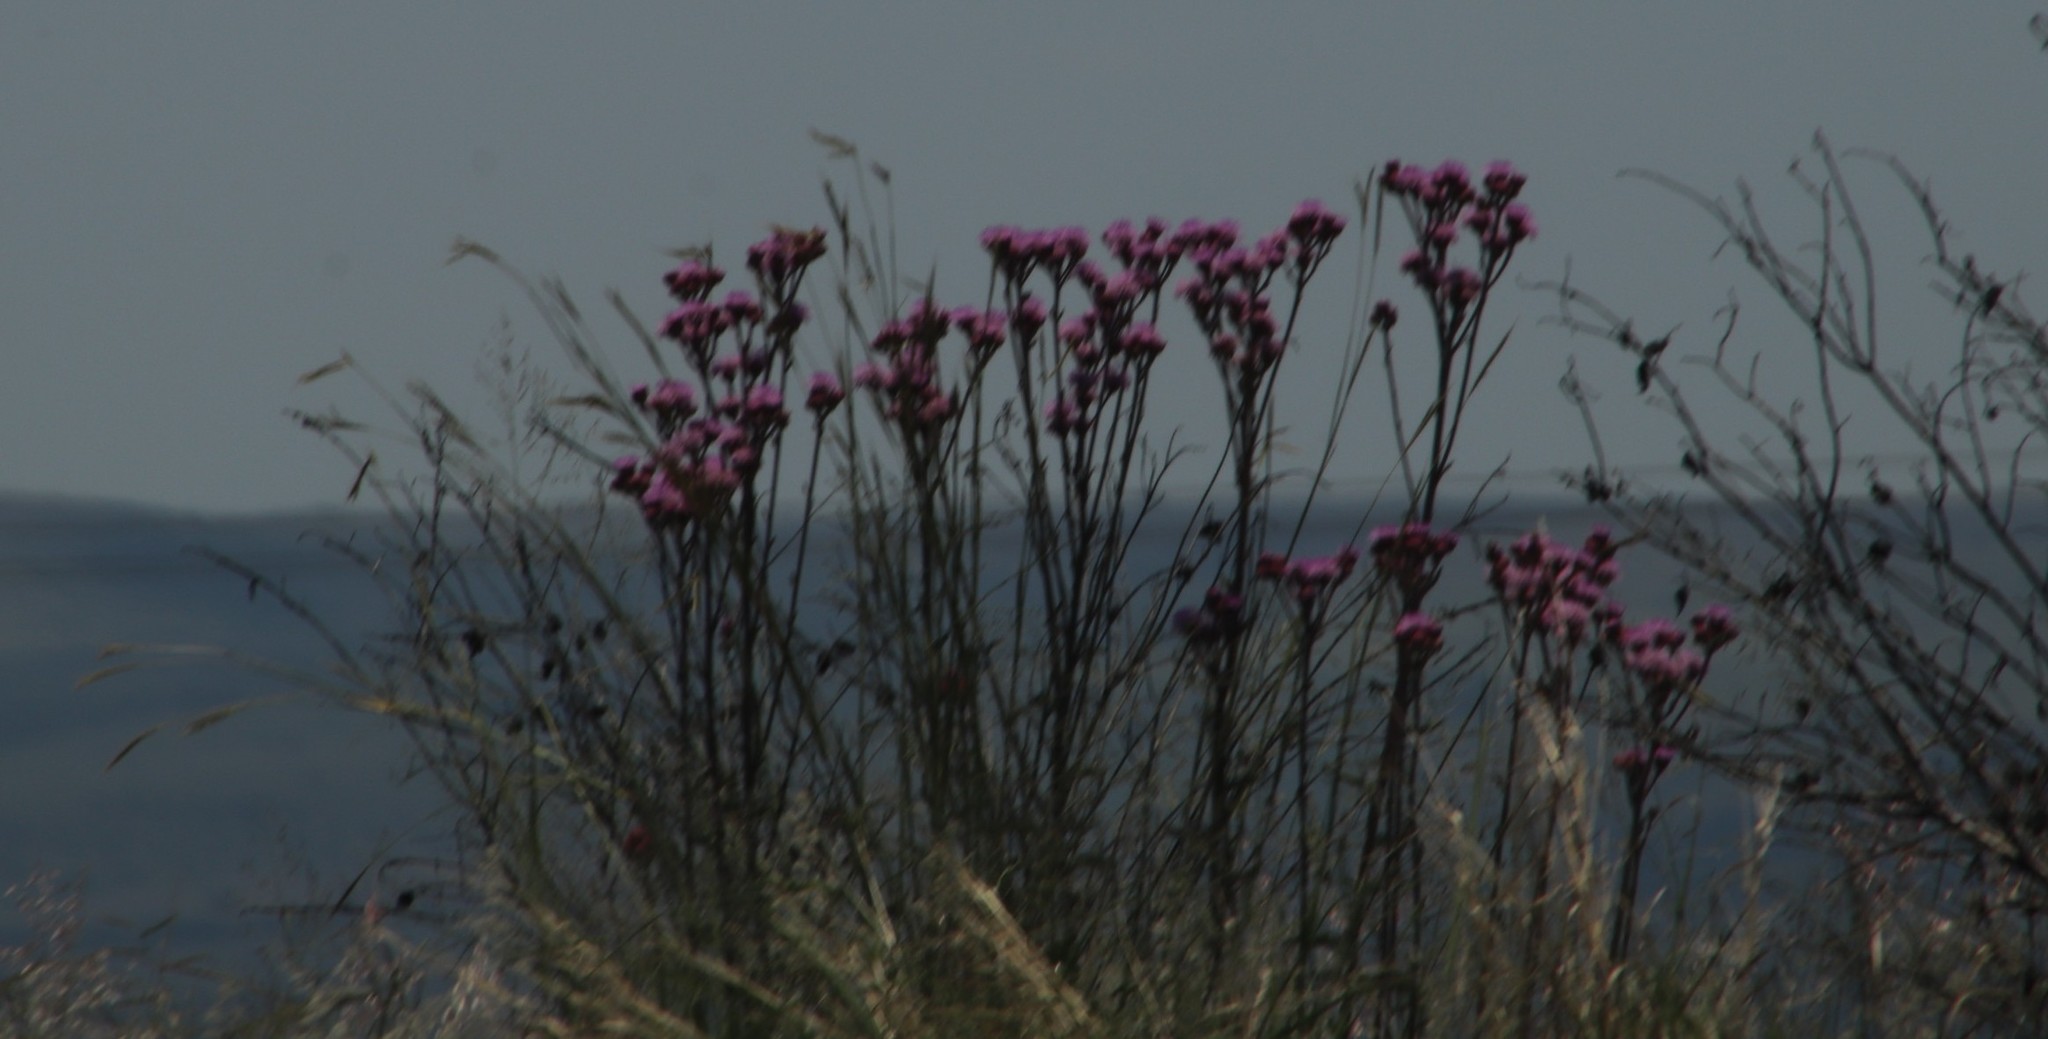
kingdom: Plantae
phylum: Tracheophyta
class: Magnoliopsida
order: Asterales
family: Asteraceae
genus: Campuloclinium
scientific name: Campuloclinium macrocephalum
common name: Pompomweed
